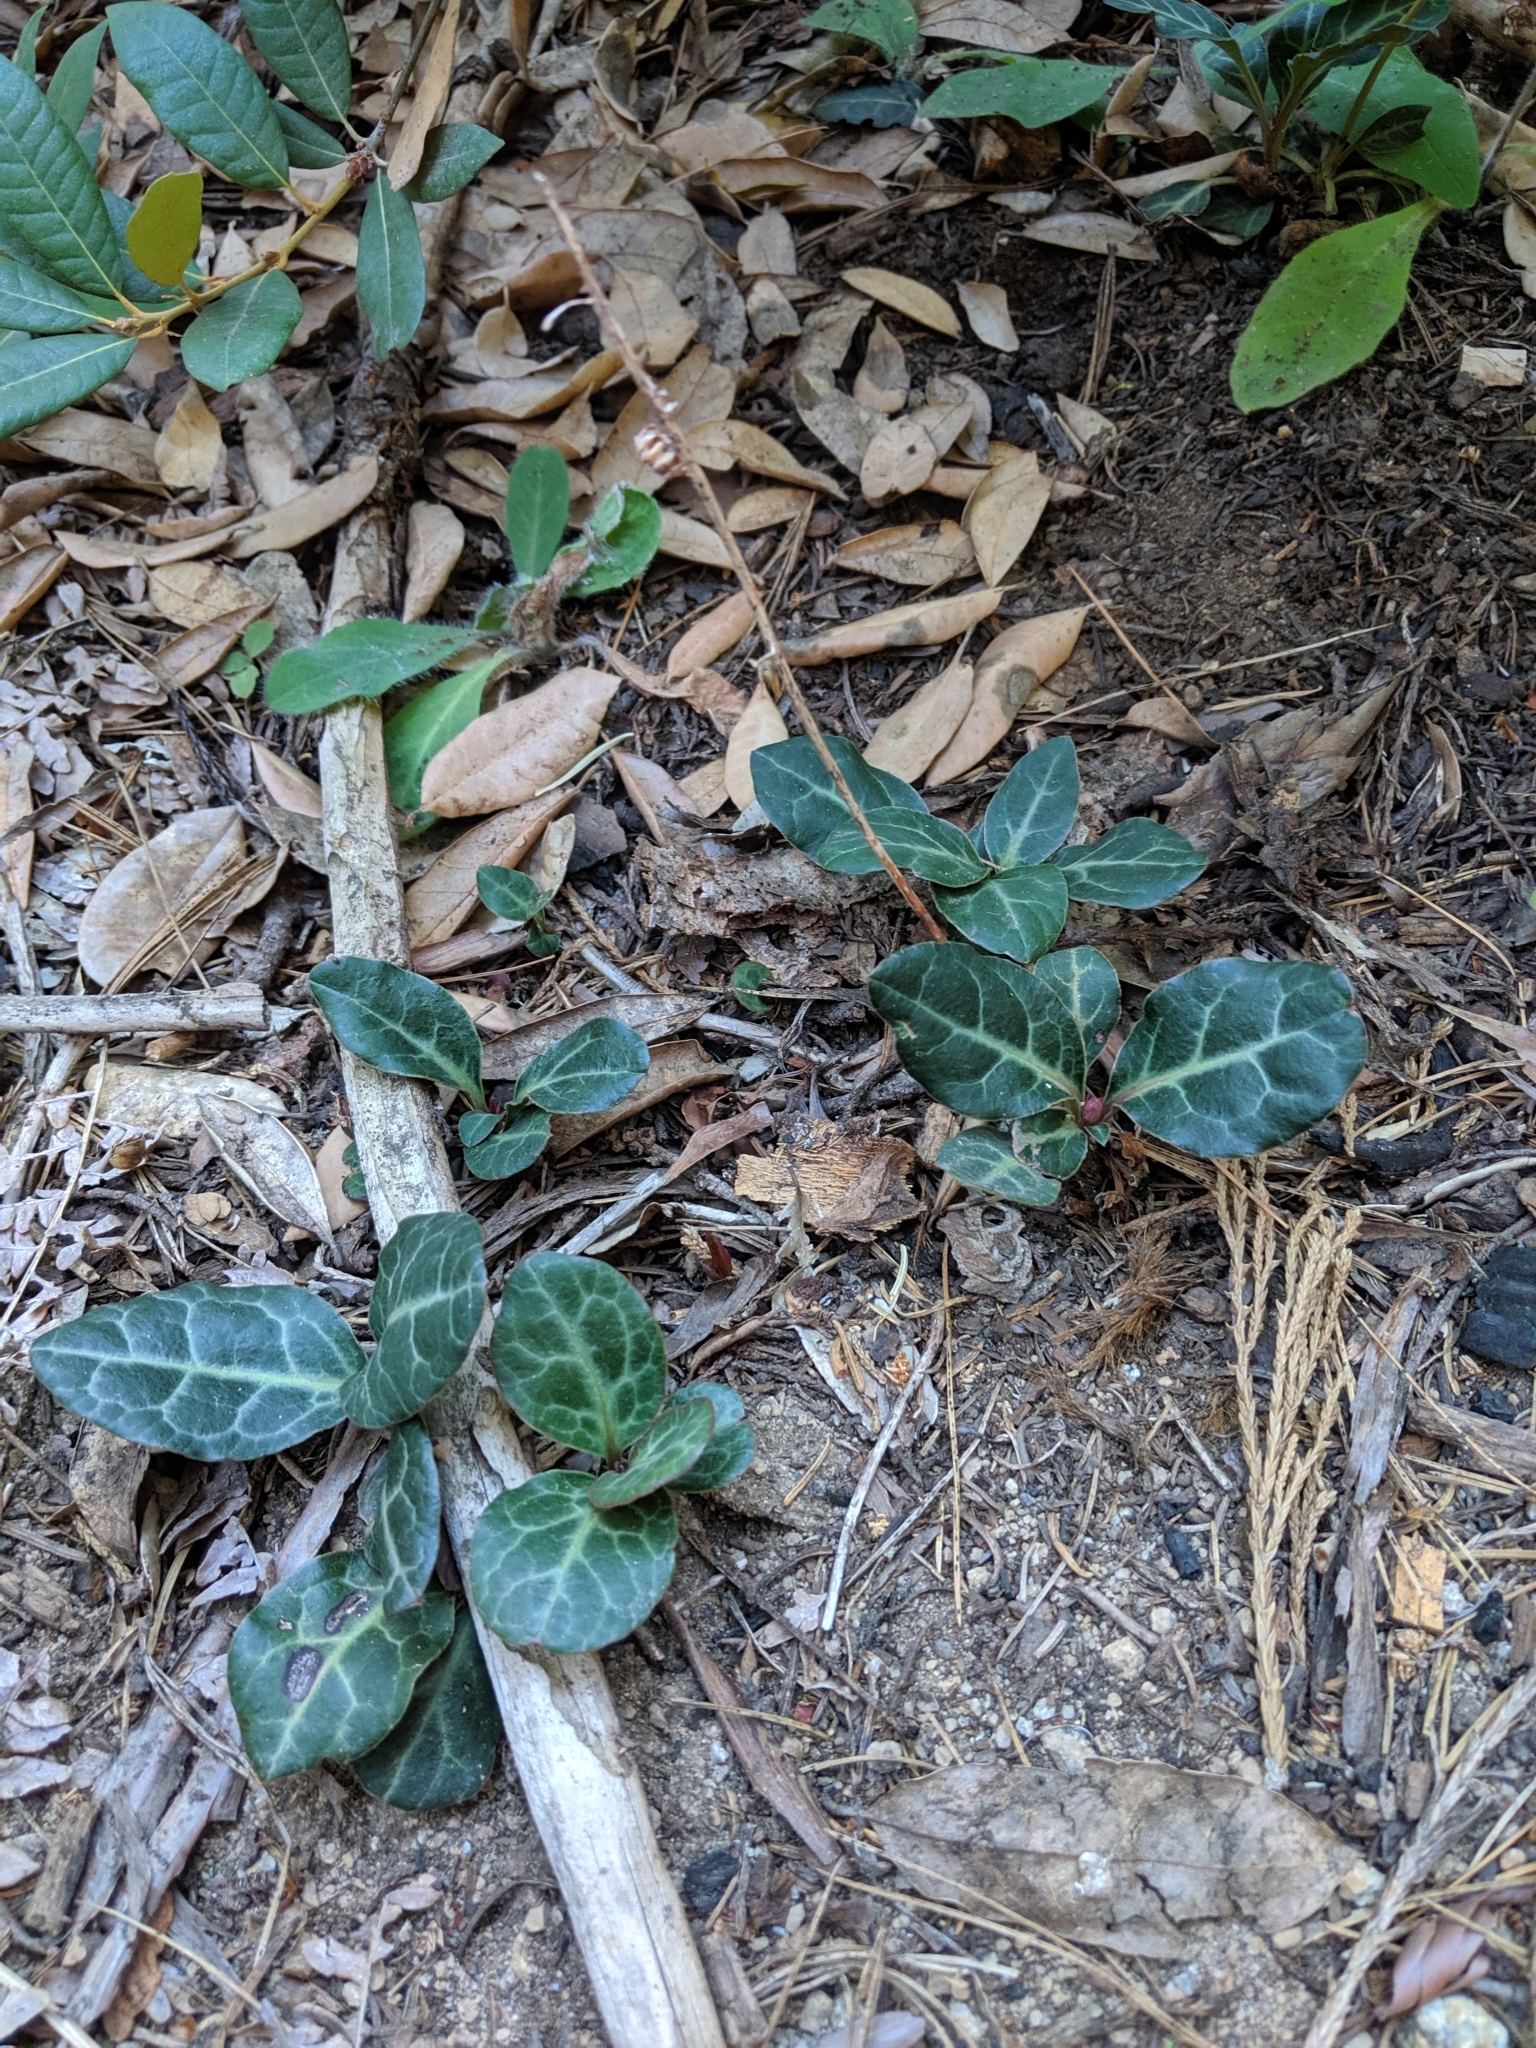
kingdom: Plantae
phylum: Tracheophyta
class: Magnoliopsida
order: Ericales
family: Ericaceae
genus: Pyrola
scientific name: Pyrola picta
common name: White-vein wintergreen
